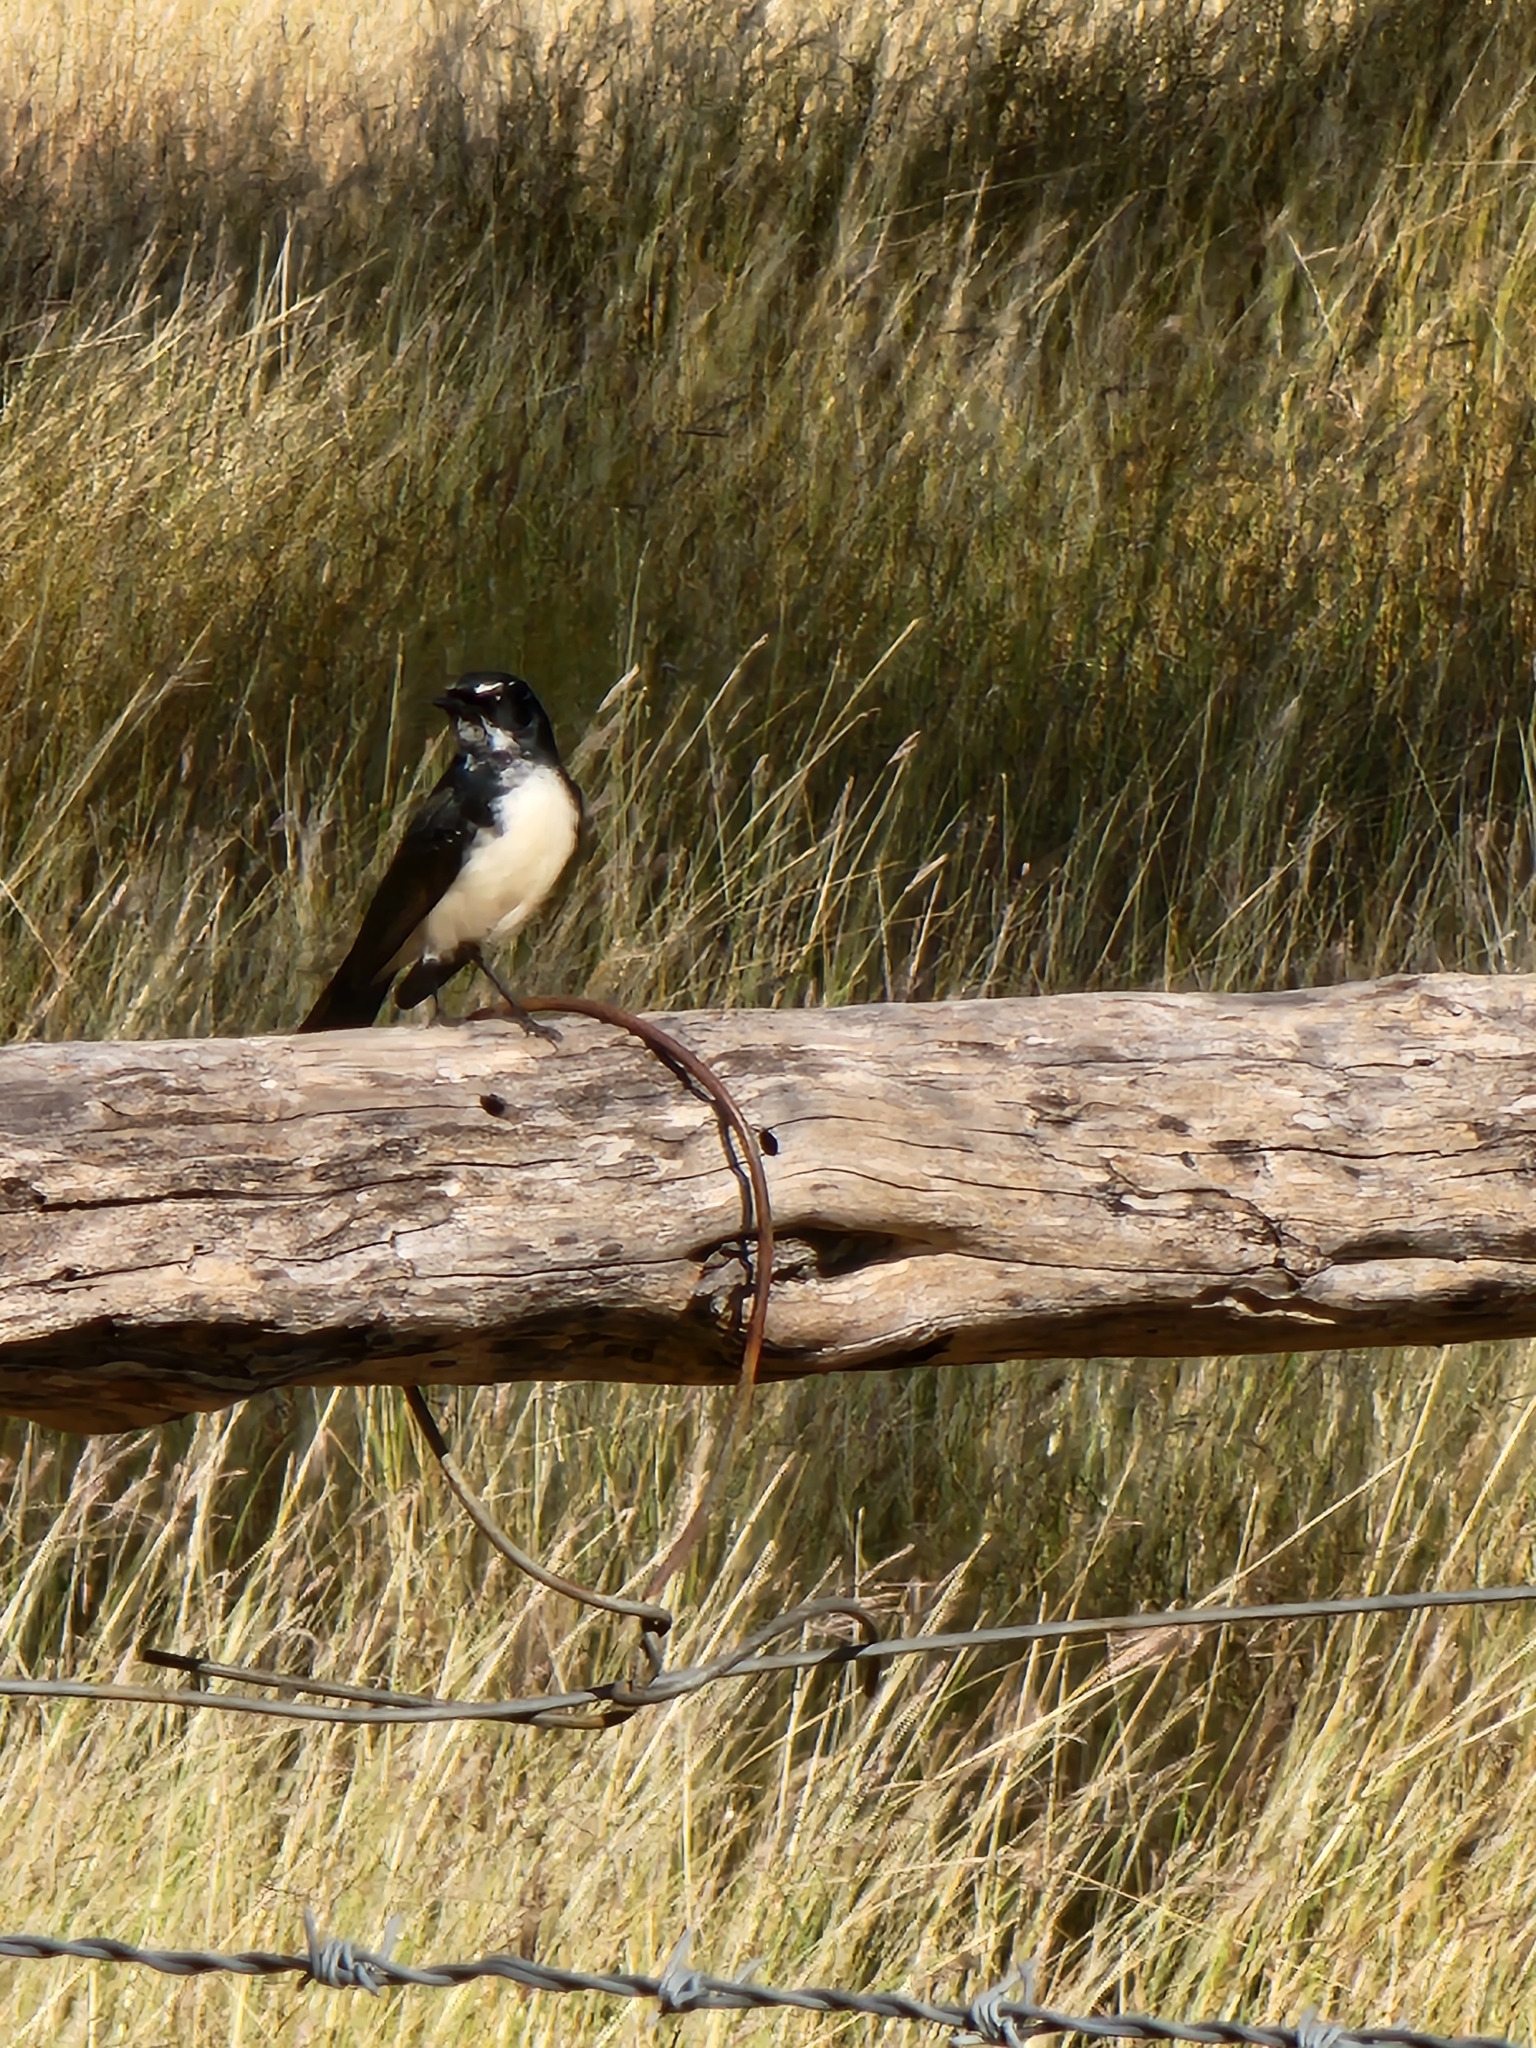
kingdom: Animalia
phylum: Chordata
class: Aves
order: Passeriformes
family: Rhipiduridae
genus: Rhipidura
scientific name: Rhipidura leucophrys
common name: Willie wagtail
